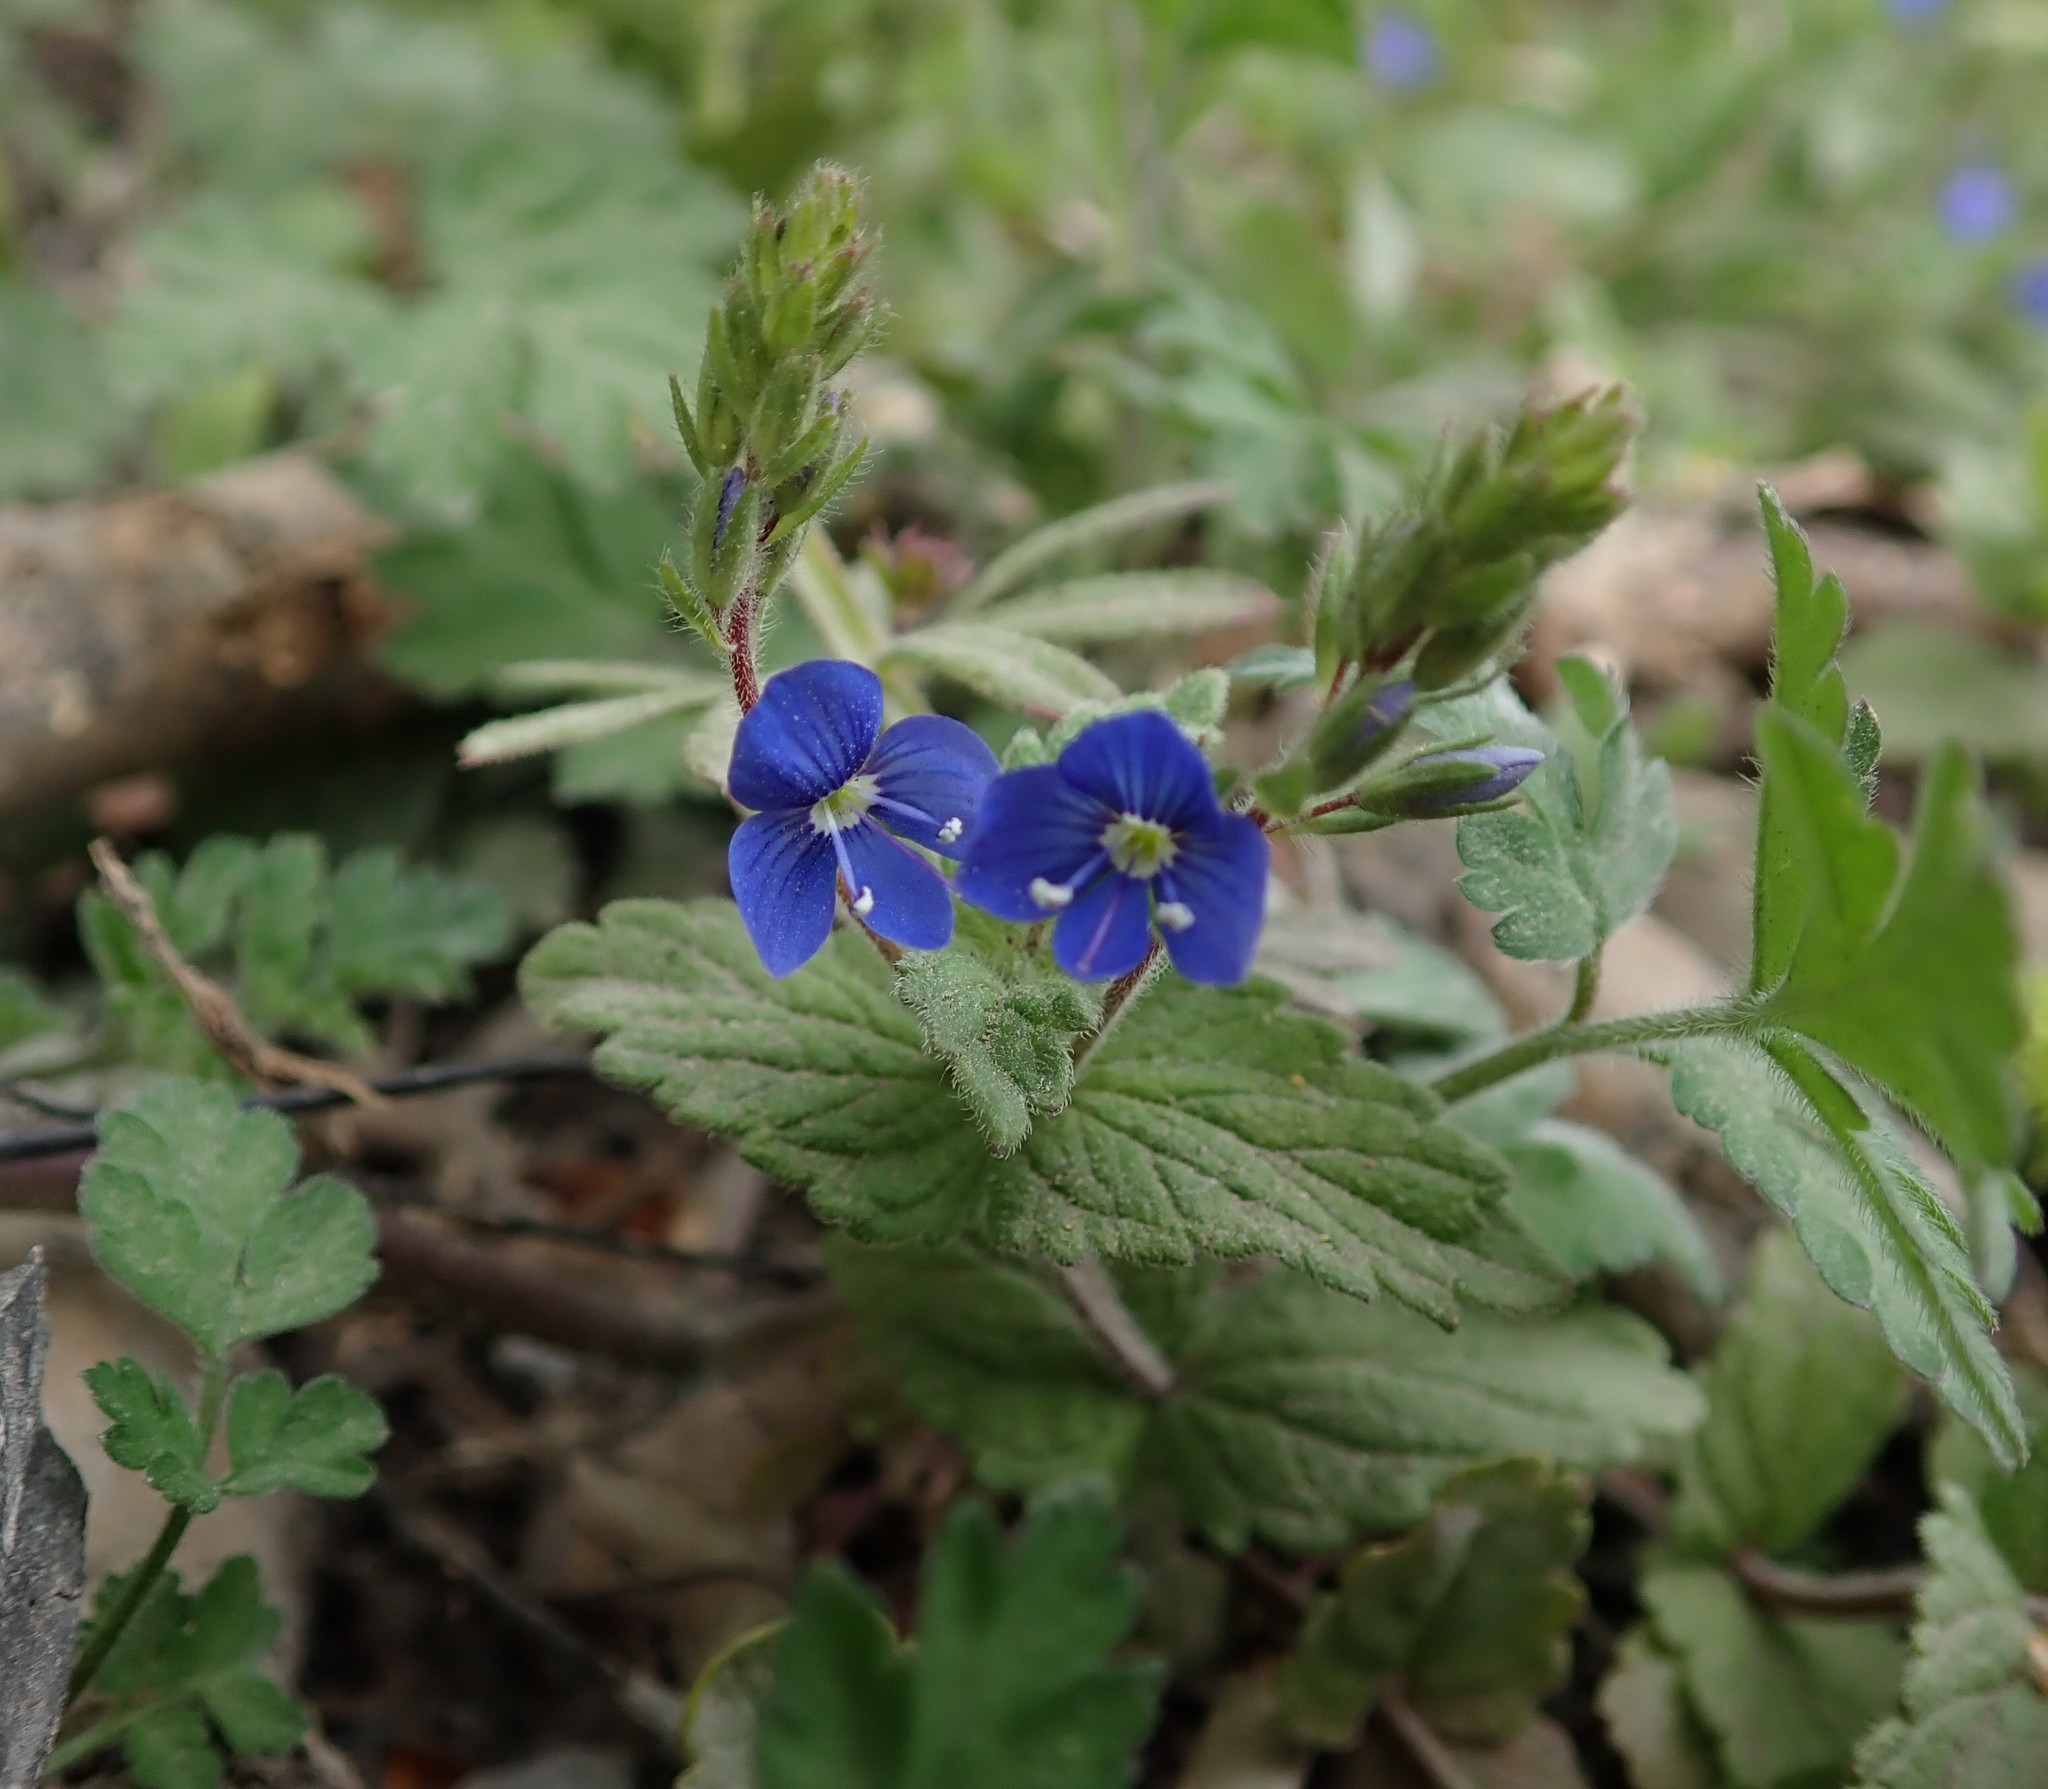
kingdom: Plantae
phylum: Tracheophyta
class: Magnoliopsida
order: Lamiales
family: Plantaginaceae
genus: Veronica
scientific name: Veronica chamaedrys
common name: Germander speedwell
